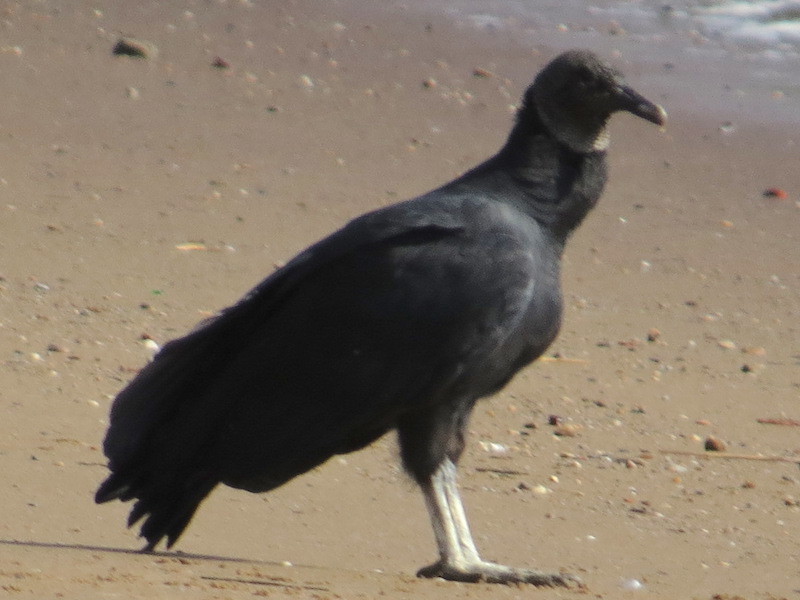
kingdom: Animalia
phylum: Chordata
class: Aves
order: Accipitriformes
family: Cathartidae
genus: Coragyps
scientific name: Coragyps atratus
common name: Black vulture
